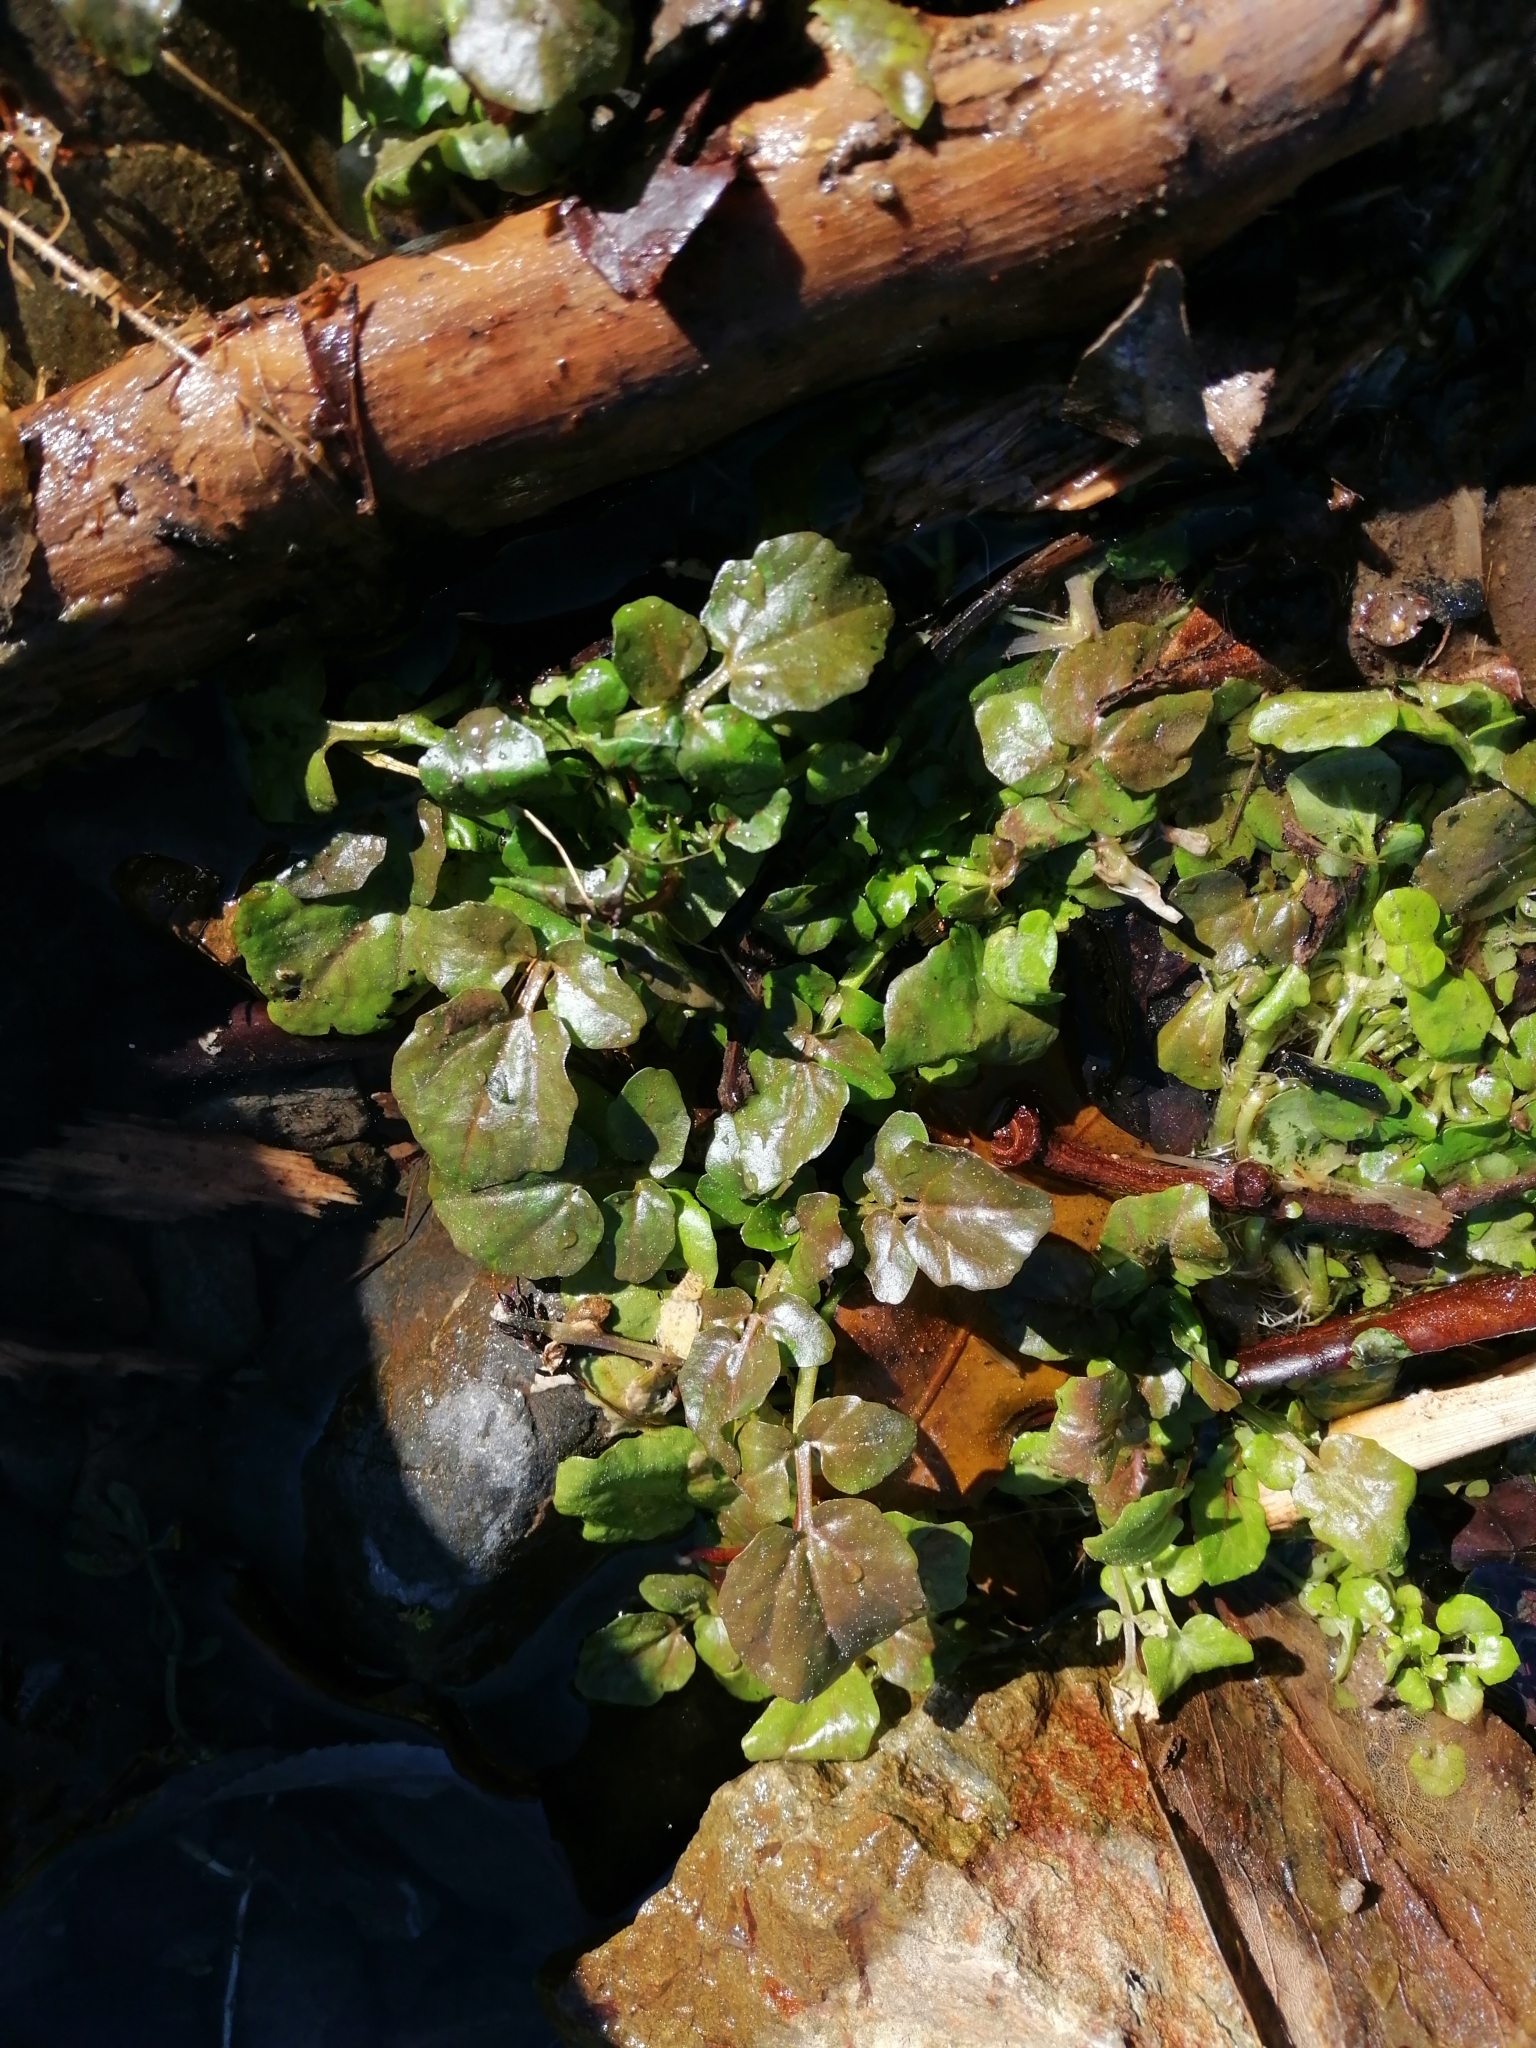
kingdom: Plantae
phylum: Tracheophyta
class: Magnoliopsida
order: Brassicales
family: Brassicaceae
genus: Nasturtium
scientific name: Nasturtium officinale
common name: Watercress
